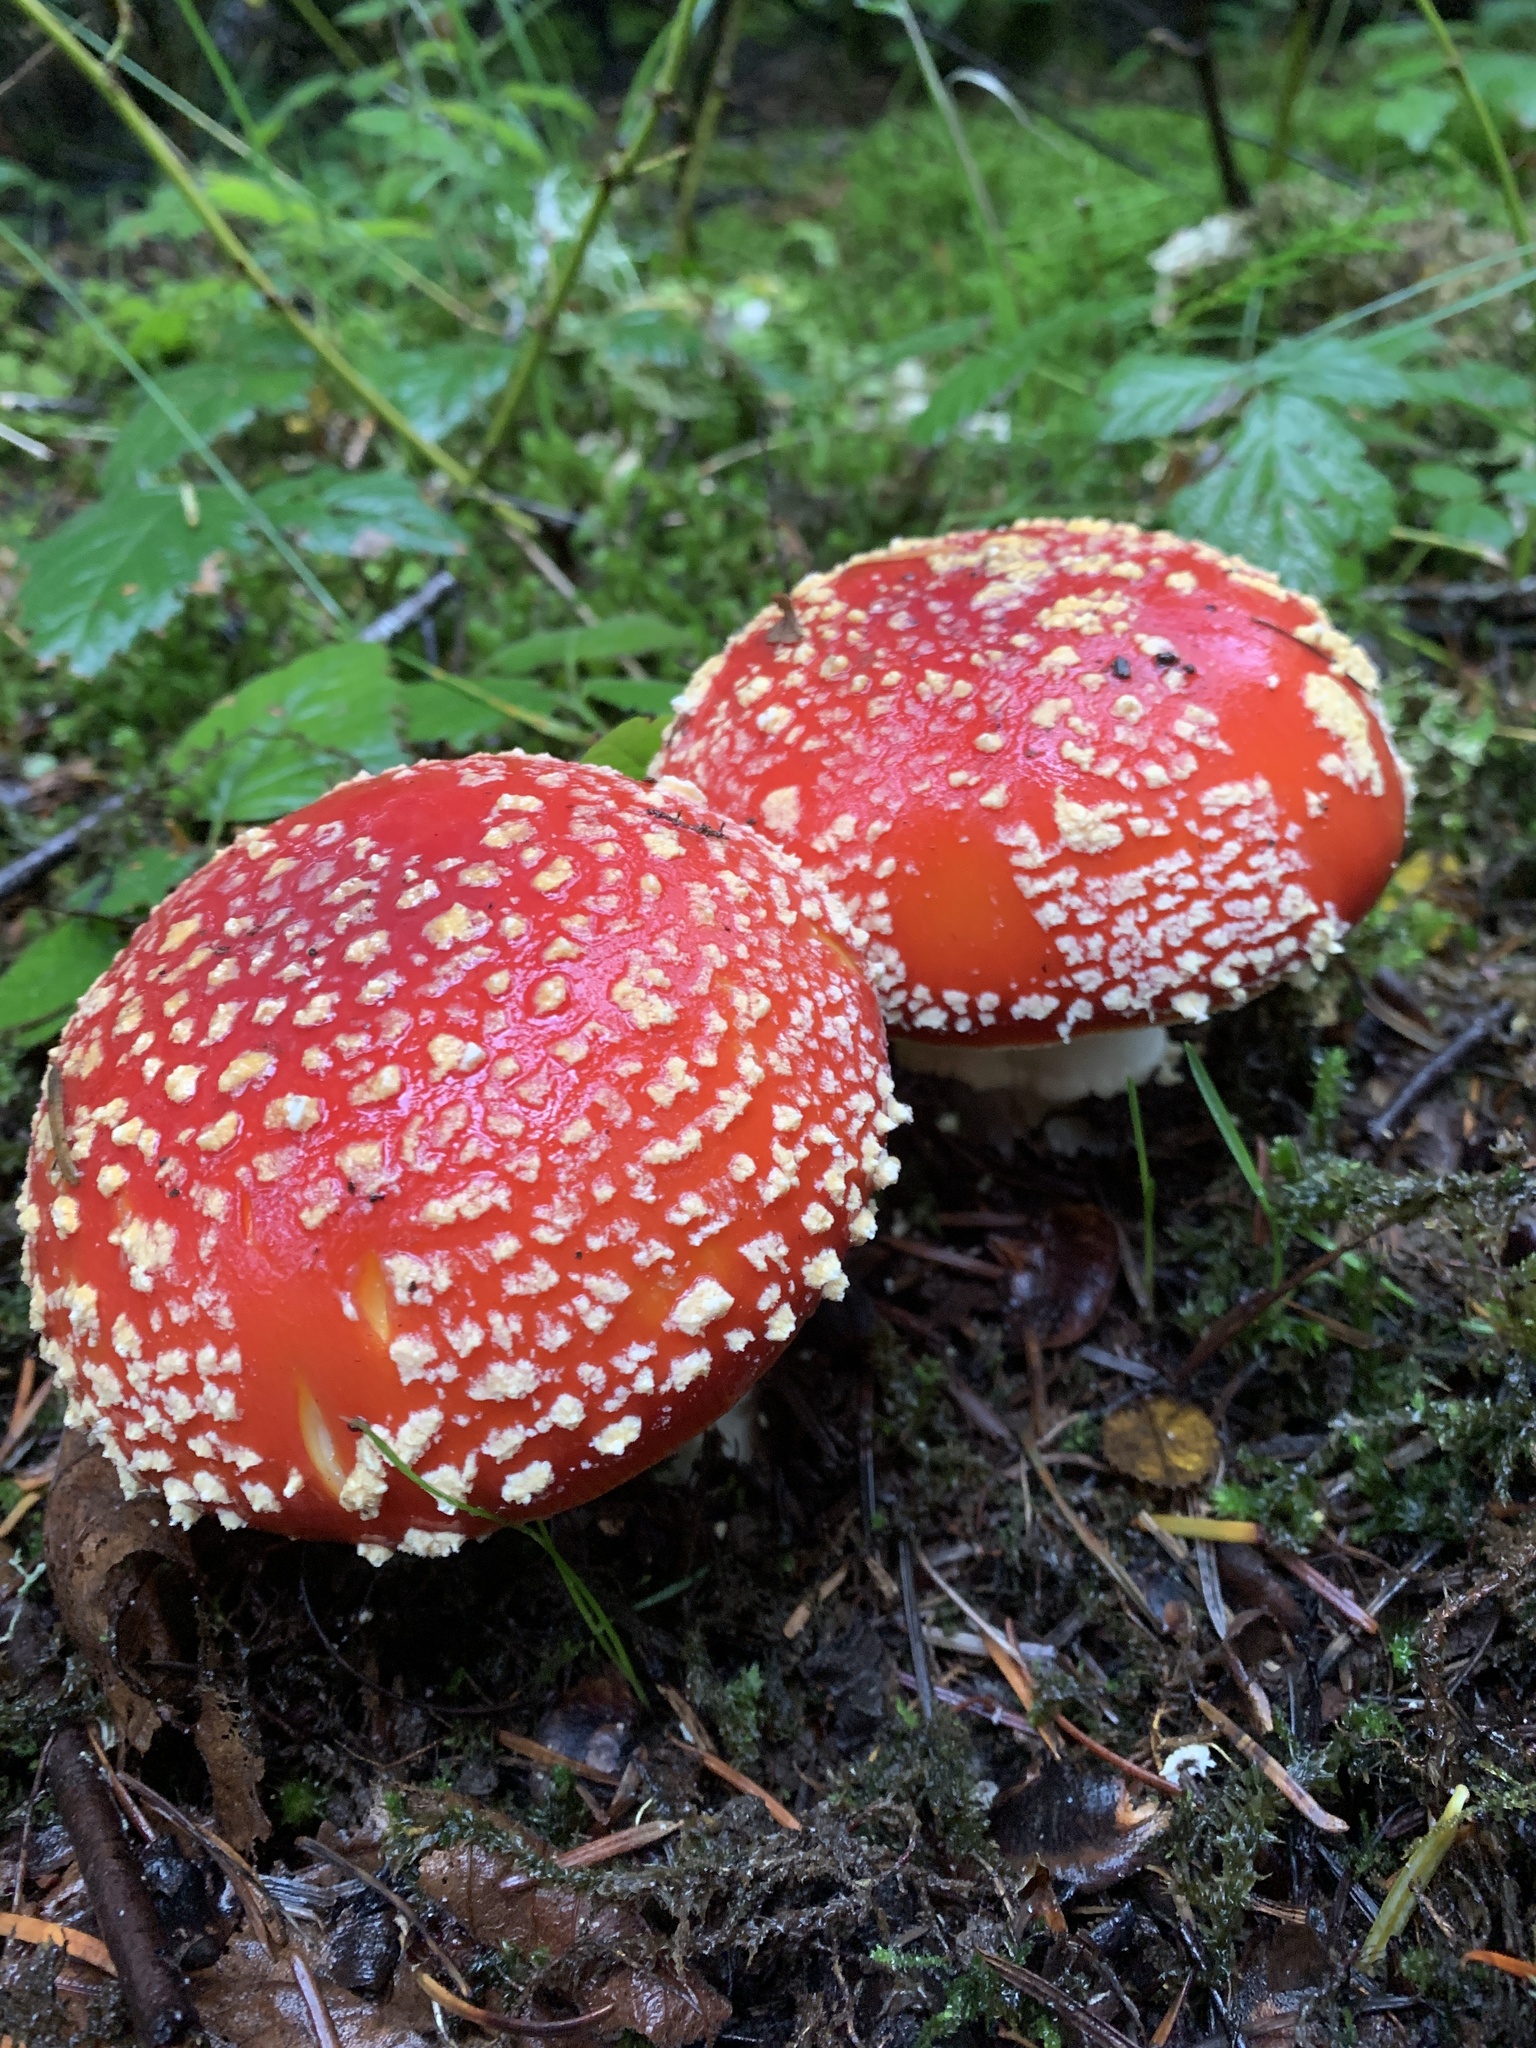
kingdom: Fungi
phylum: Basidiomycota
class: Agaricomycetes
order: Agaricales
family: Amanitaceae
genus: Amanita
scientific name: Amanita muscaria
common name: Fly agaric
